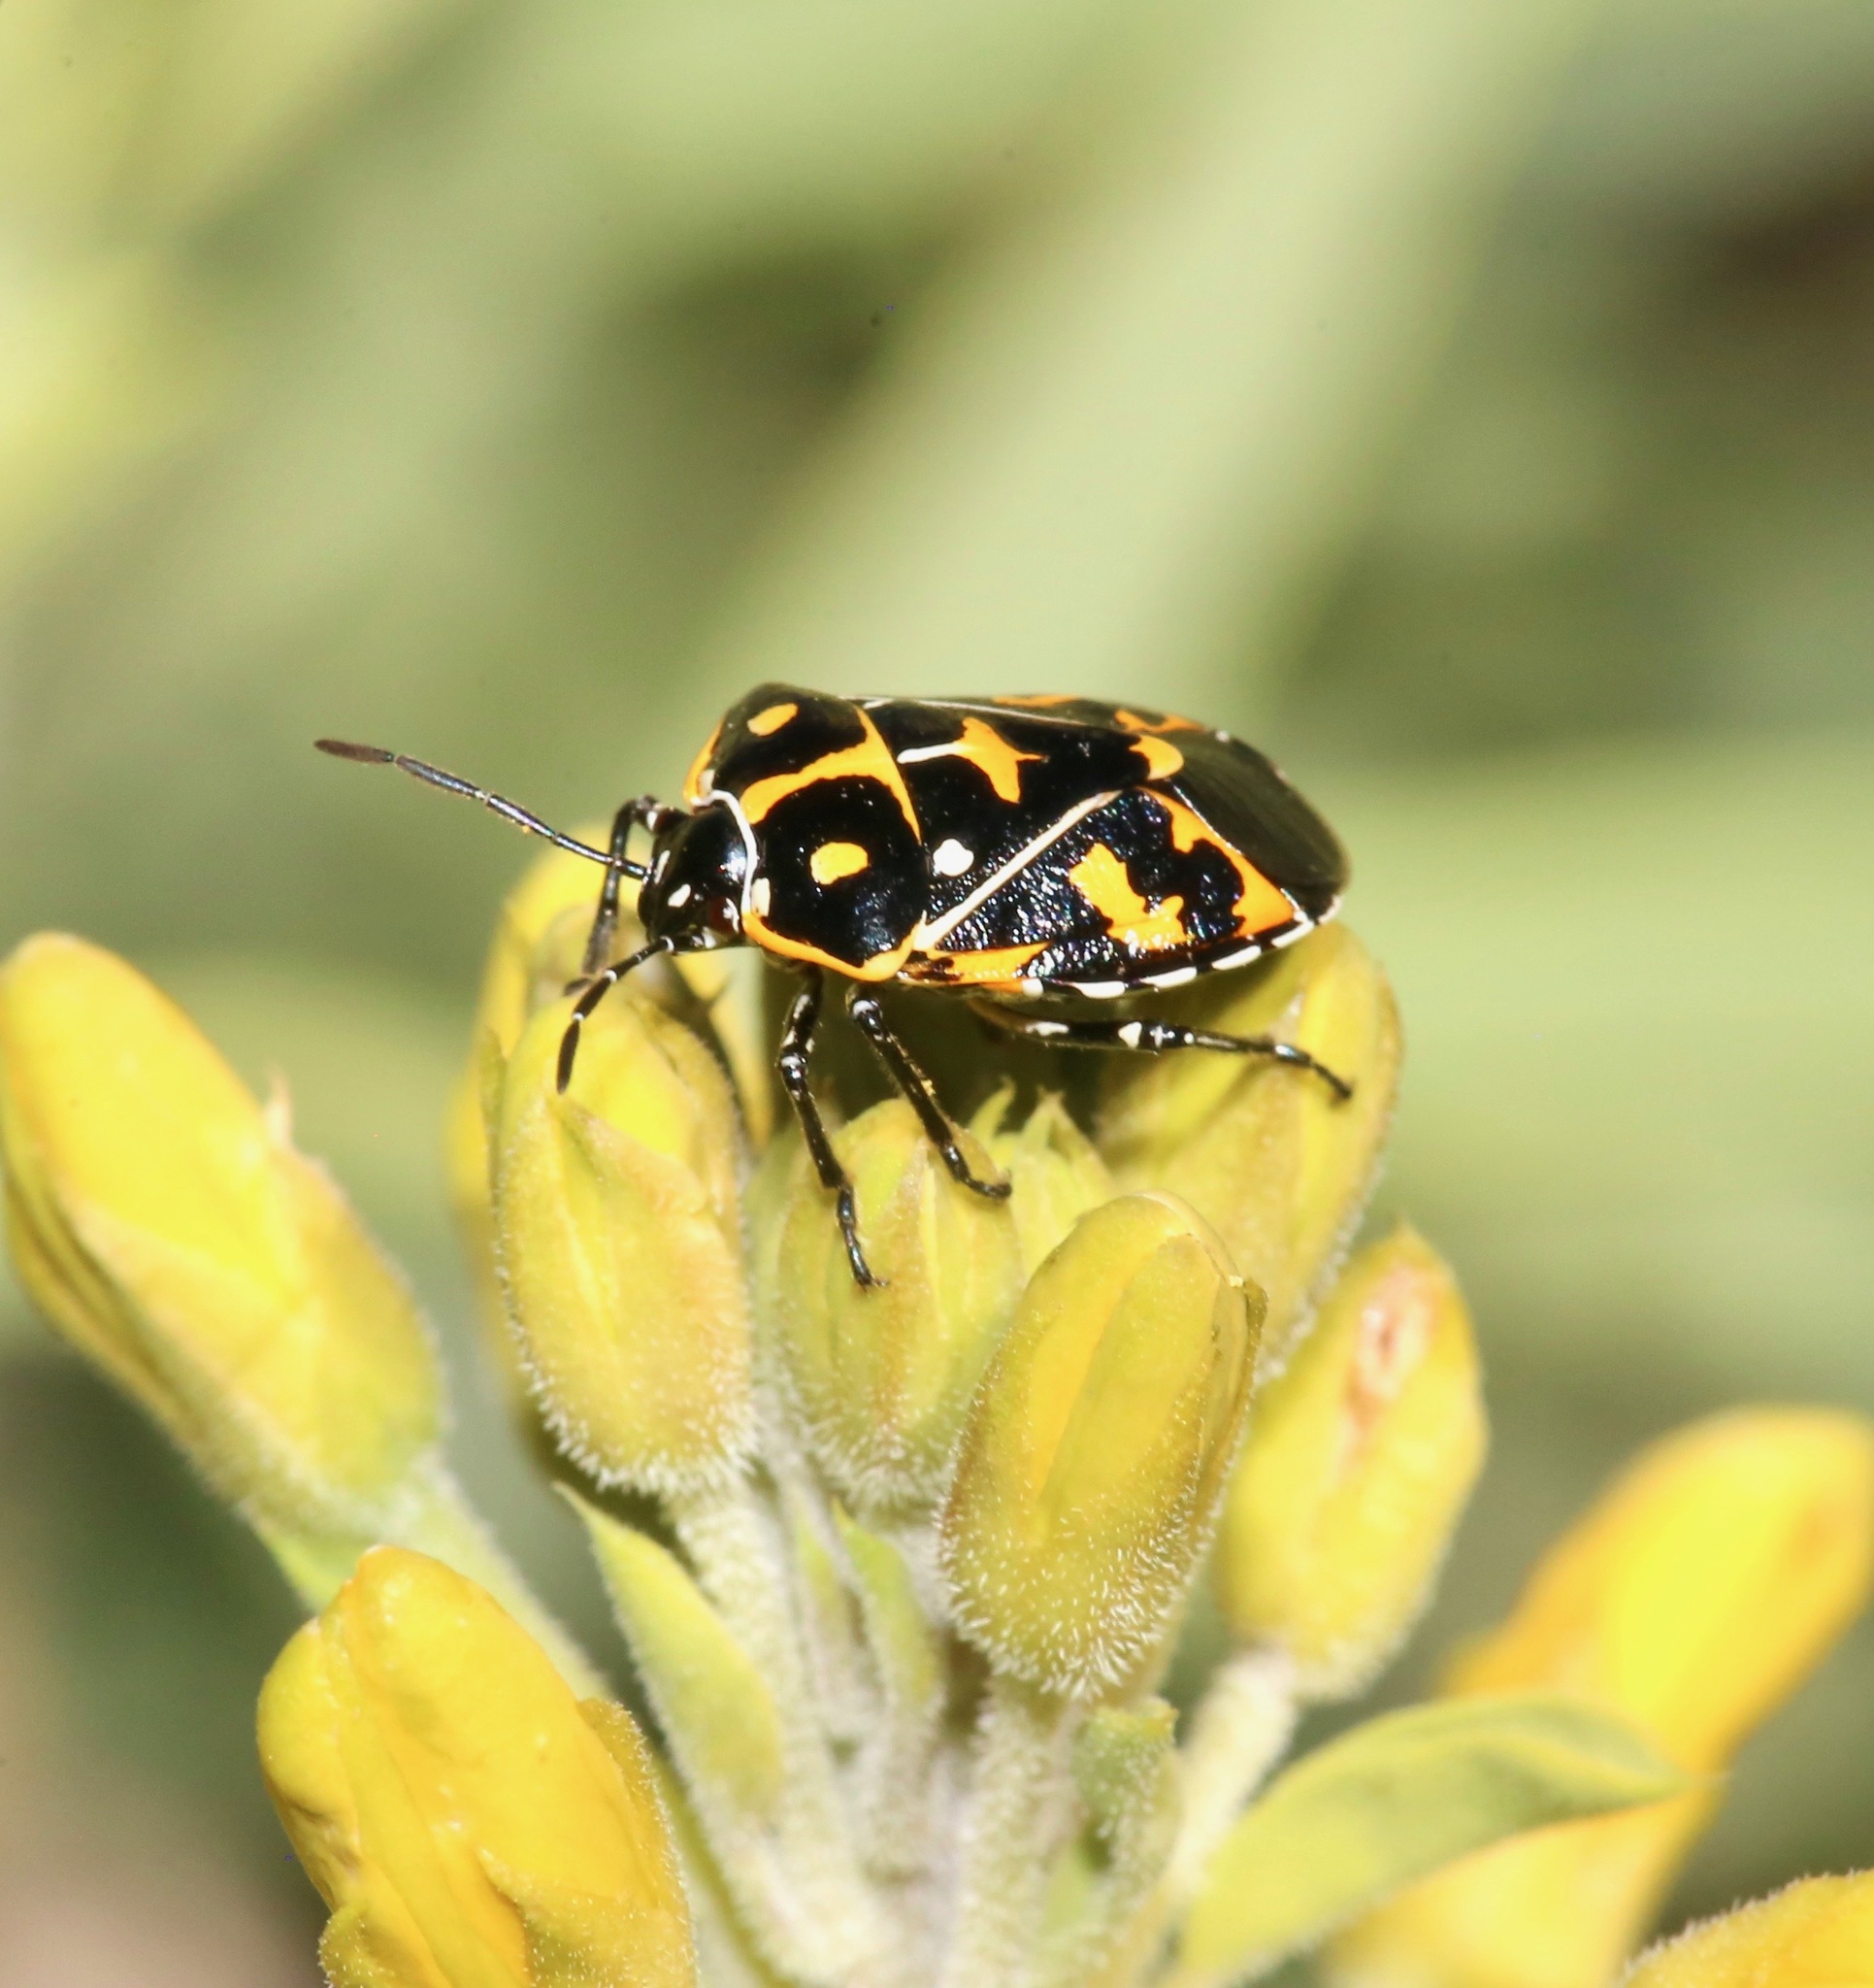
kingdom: Animalia
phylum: Arthropoda
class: Insecta
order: Hemiptera
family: Pentatomidae
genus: Murgantia
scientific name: Murgantia histrionica
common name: Harlequin bug
